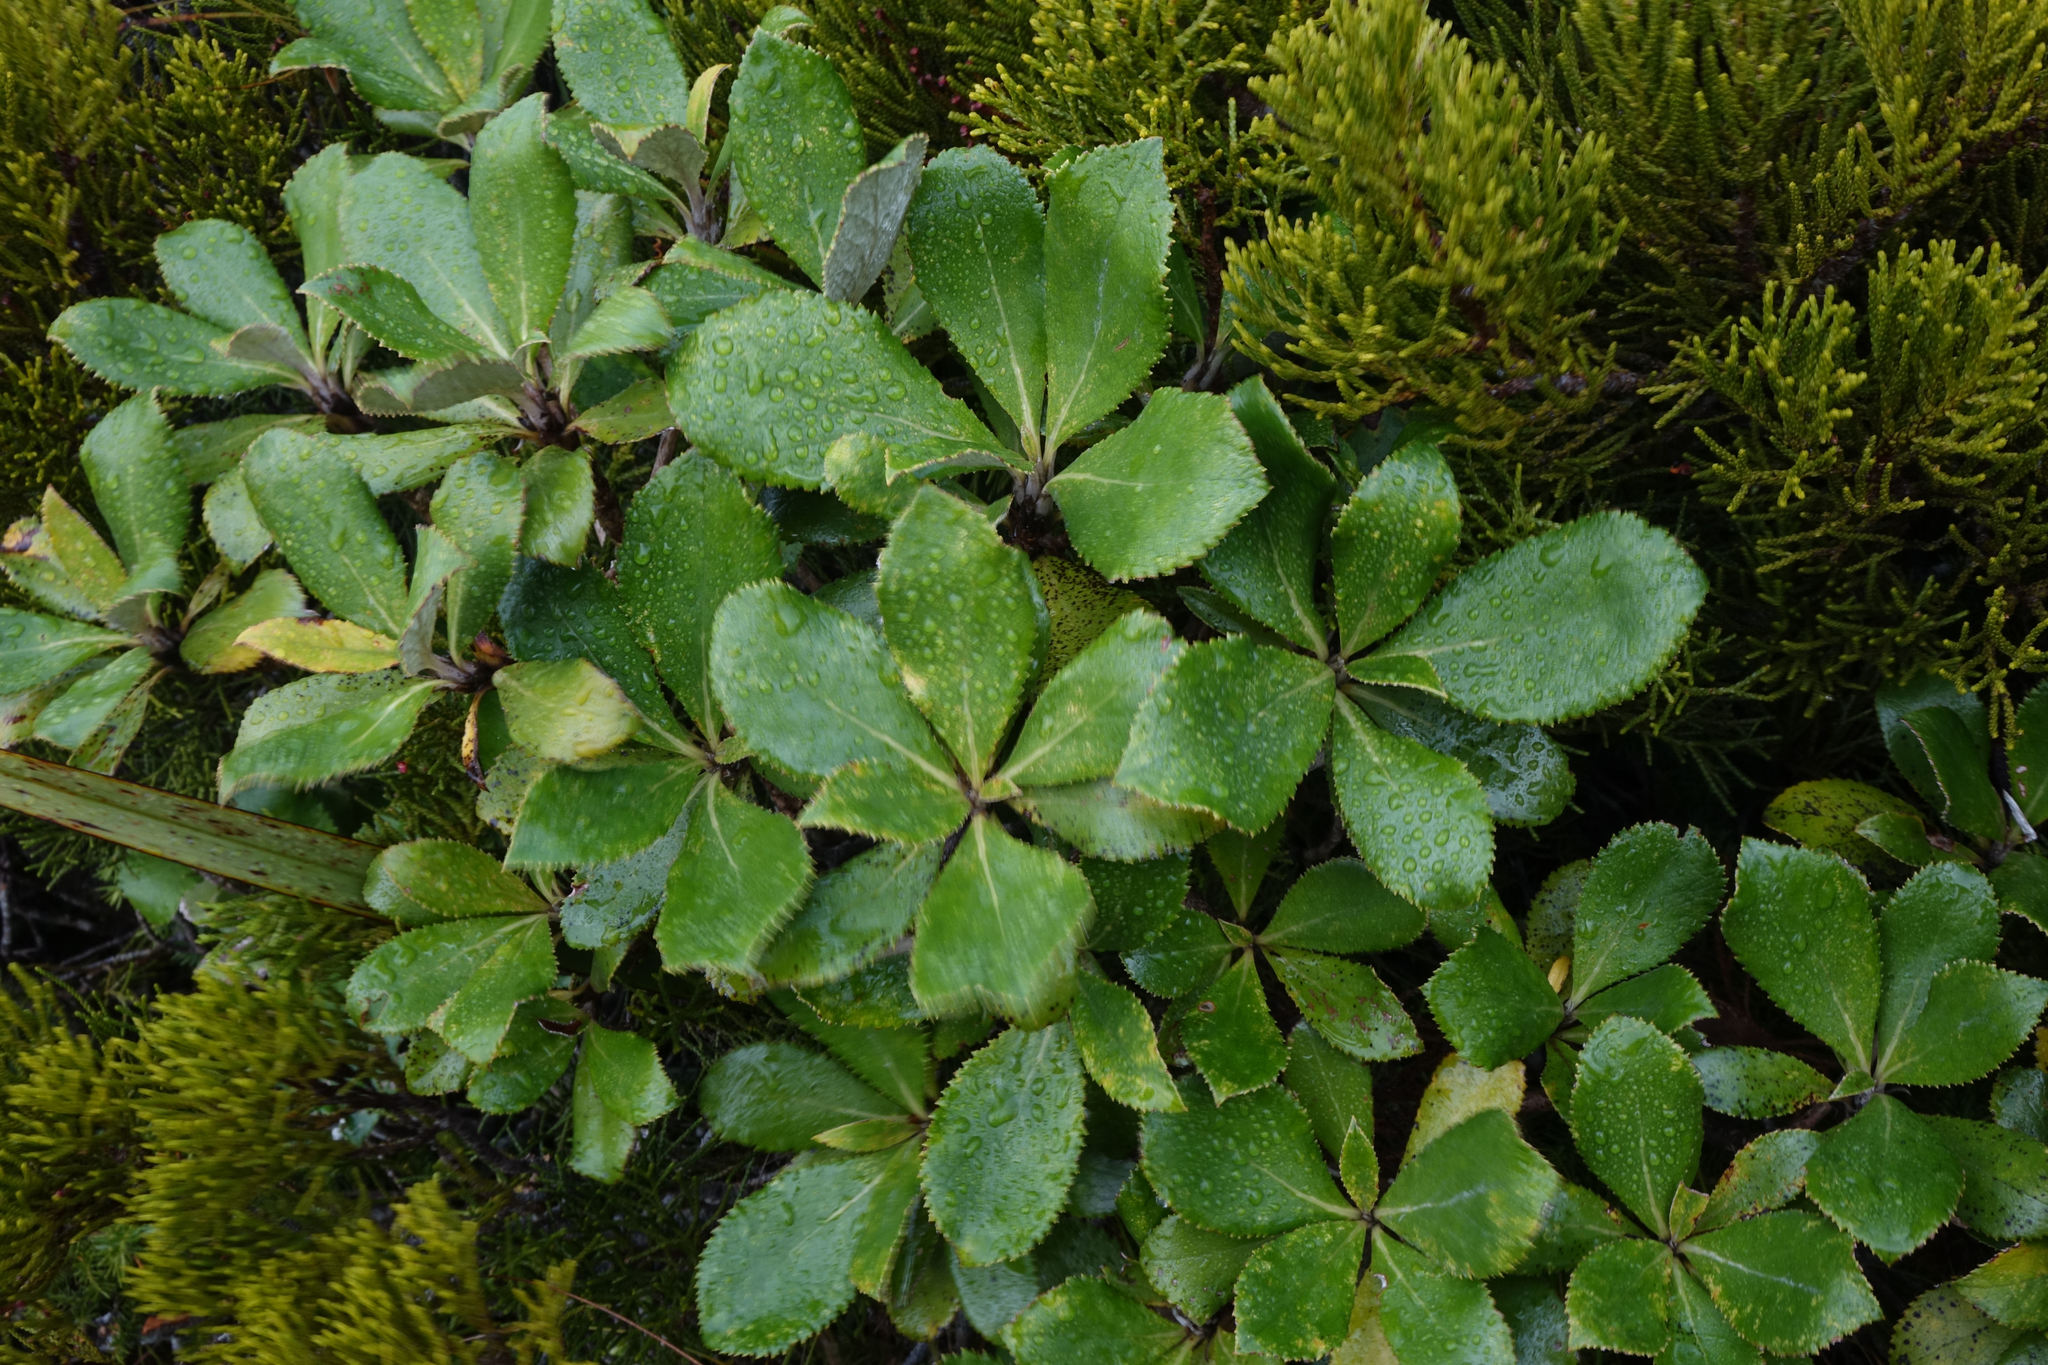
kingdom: Plantae
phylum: Tracheophyta
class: Magnoliopsida
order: Asterales
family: Asteraceae
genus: Macrolearia
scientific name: Macrolearia colensoi
